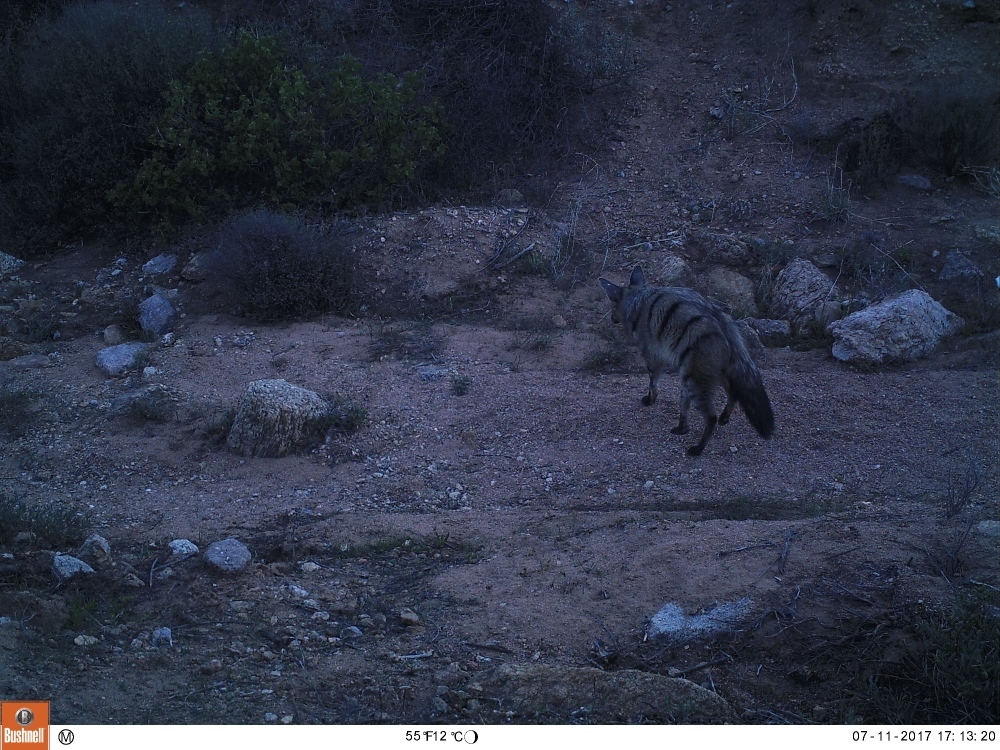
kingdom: Animalia
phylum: Chordata
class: Mammalia
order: Carnivora
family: Hyaenidae
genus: Proteles
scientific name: Proteles cristata
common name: Aardwolf
